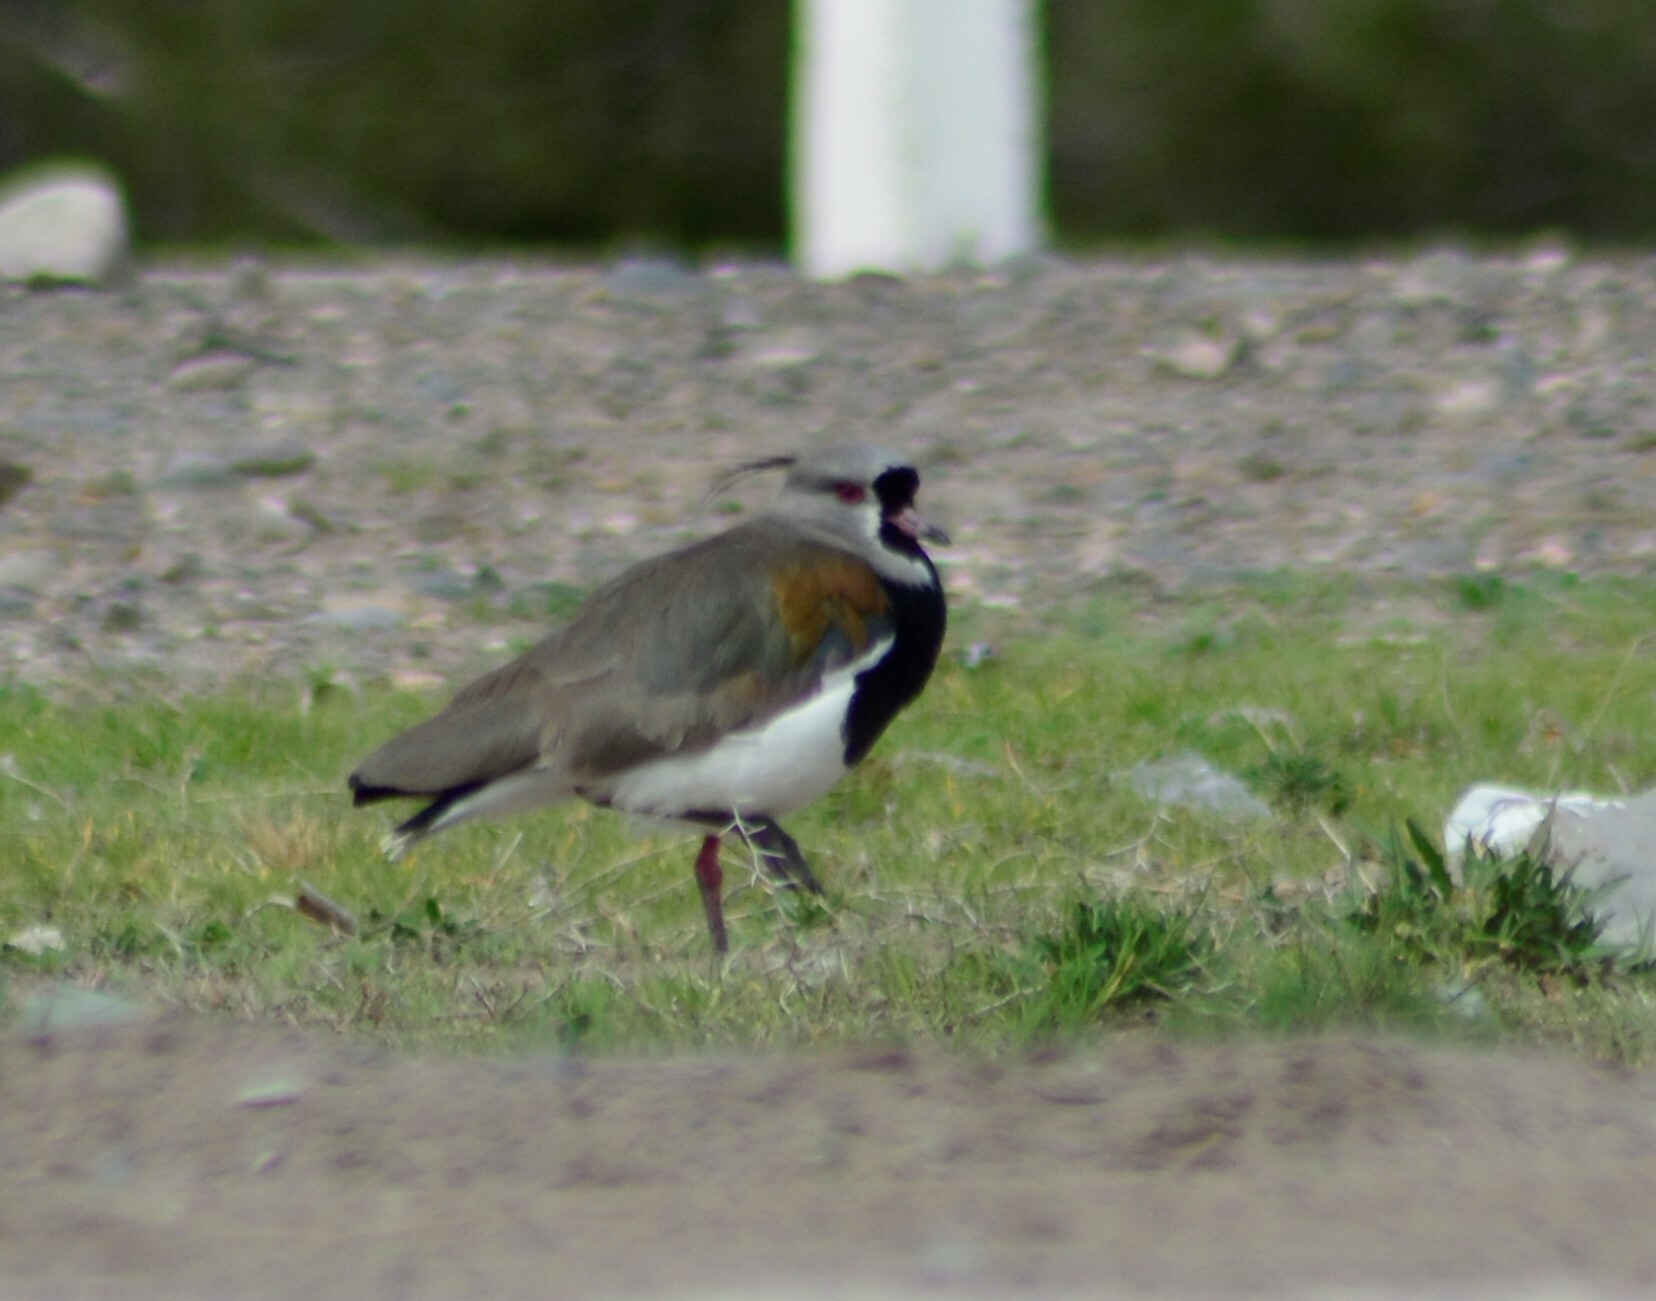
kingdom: Animalia
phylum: Chordata
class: Aves
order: Charadriiformes
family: Charadriidae
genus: Vanellus
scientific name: Vanellus chilensis
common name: Southern lapwing
